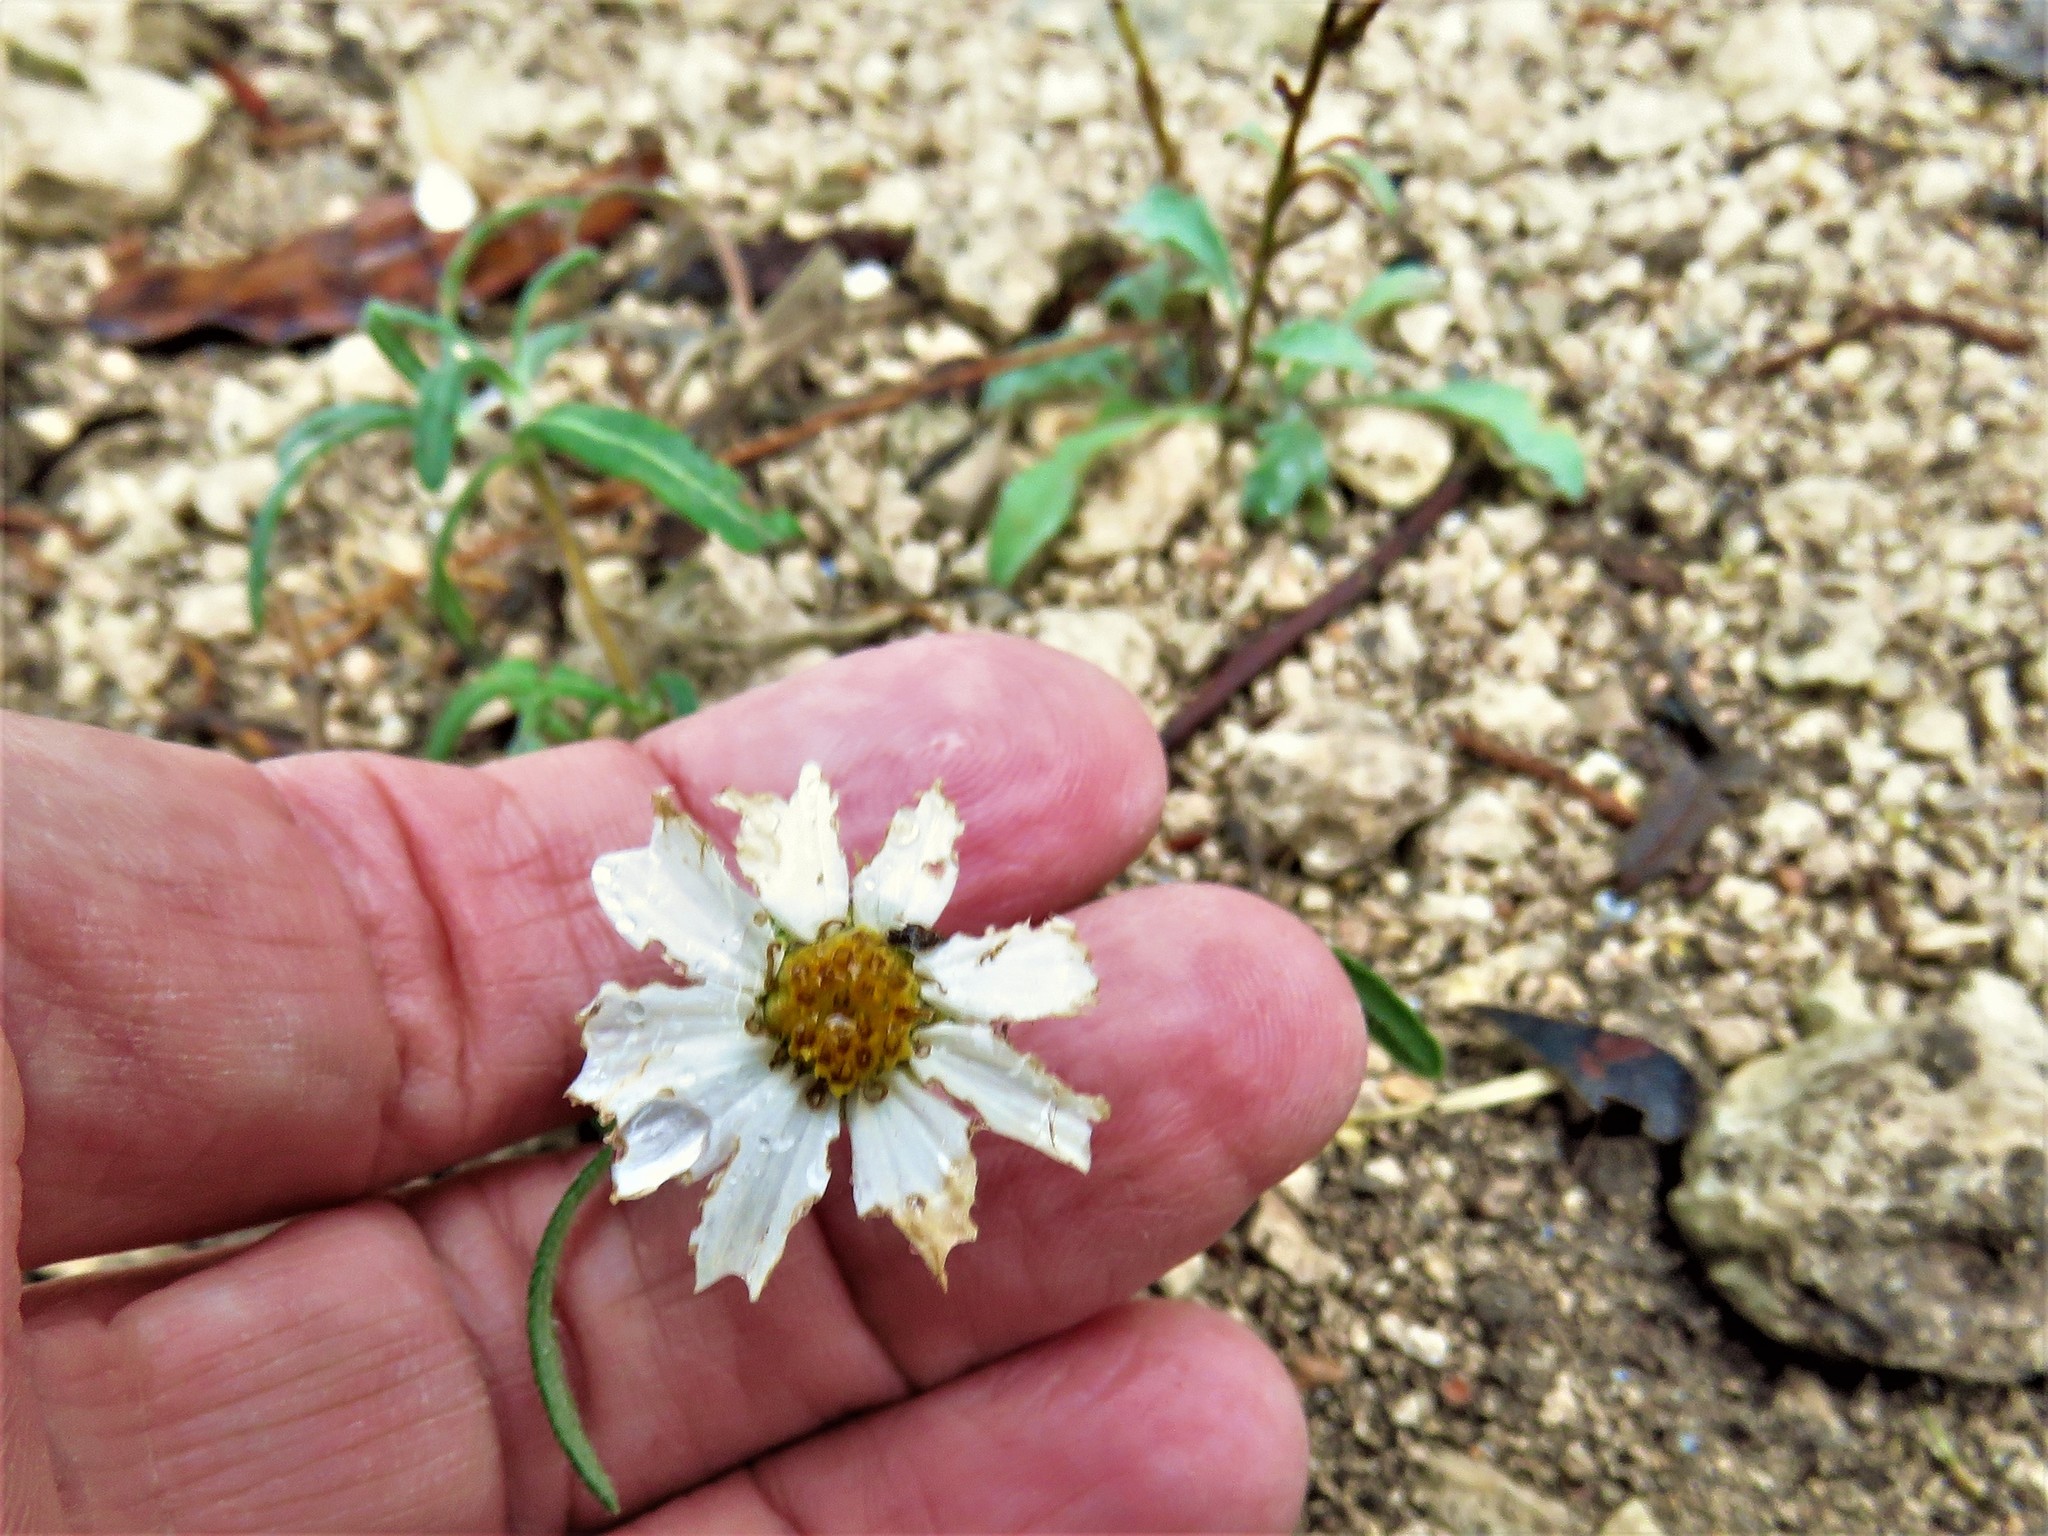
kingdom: Plantae
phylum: Tracheophyta
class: Magnoliopsida
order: Asterales
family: Asteraceae
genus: Melampodium
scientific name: Melampodium leucanthum
